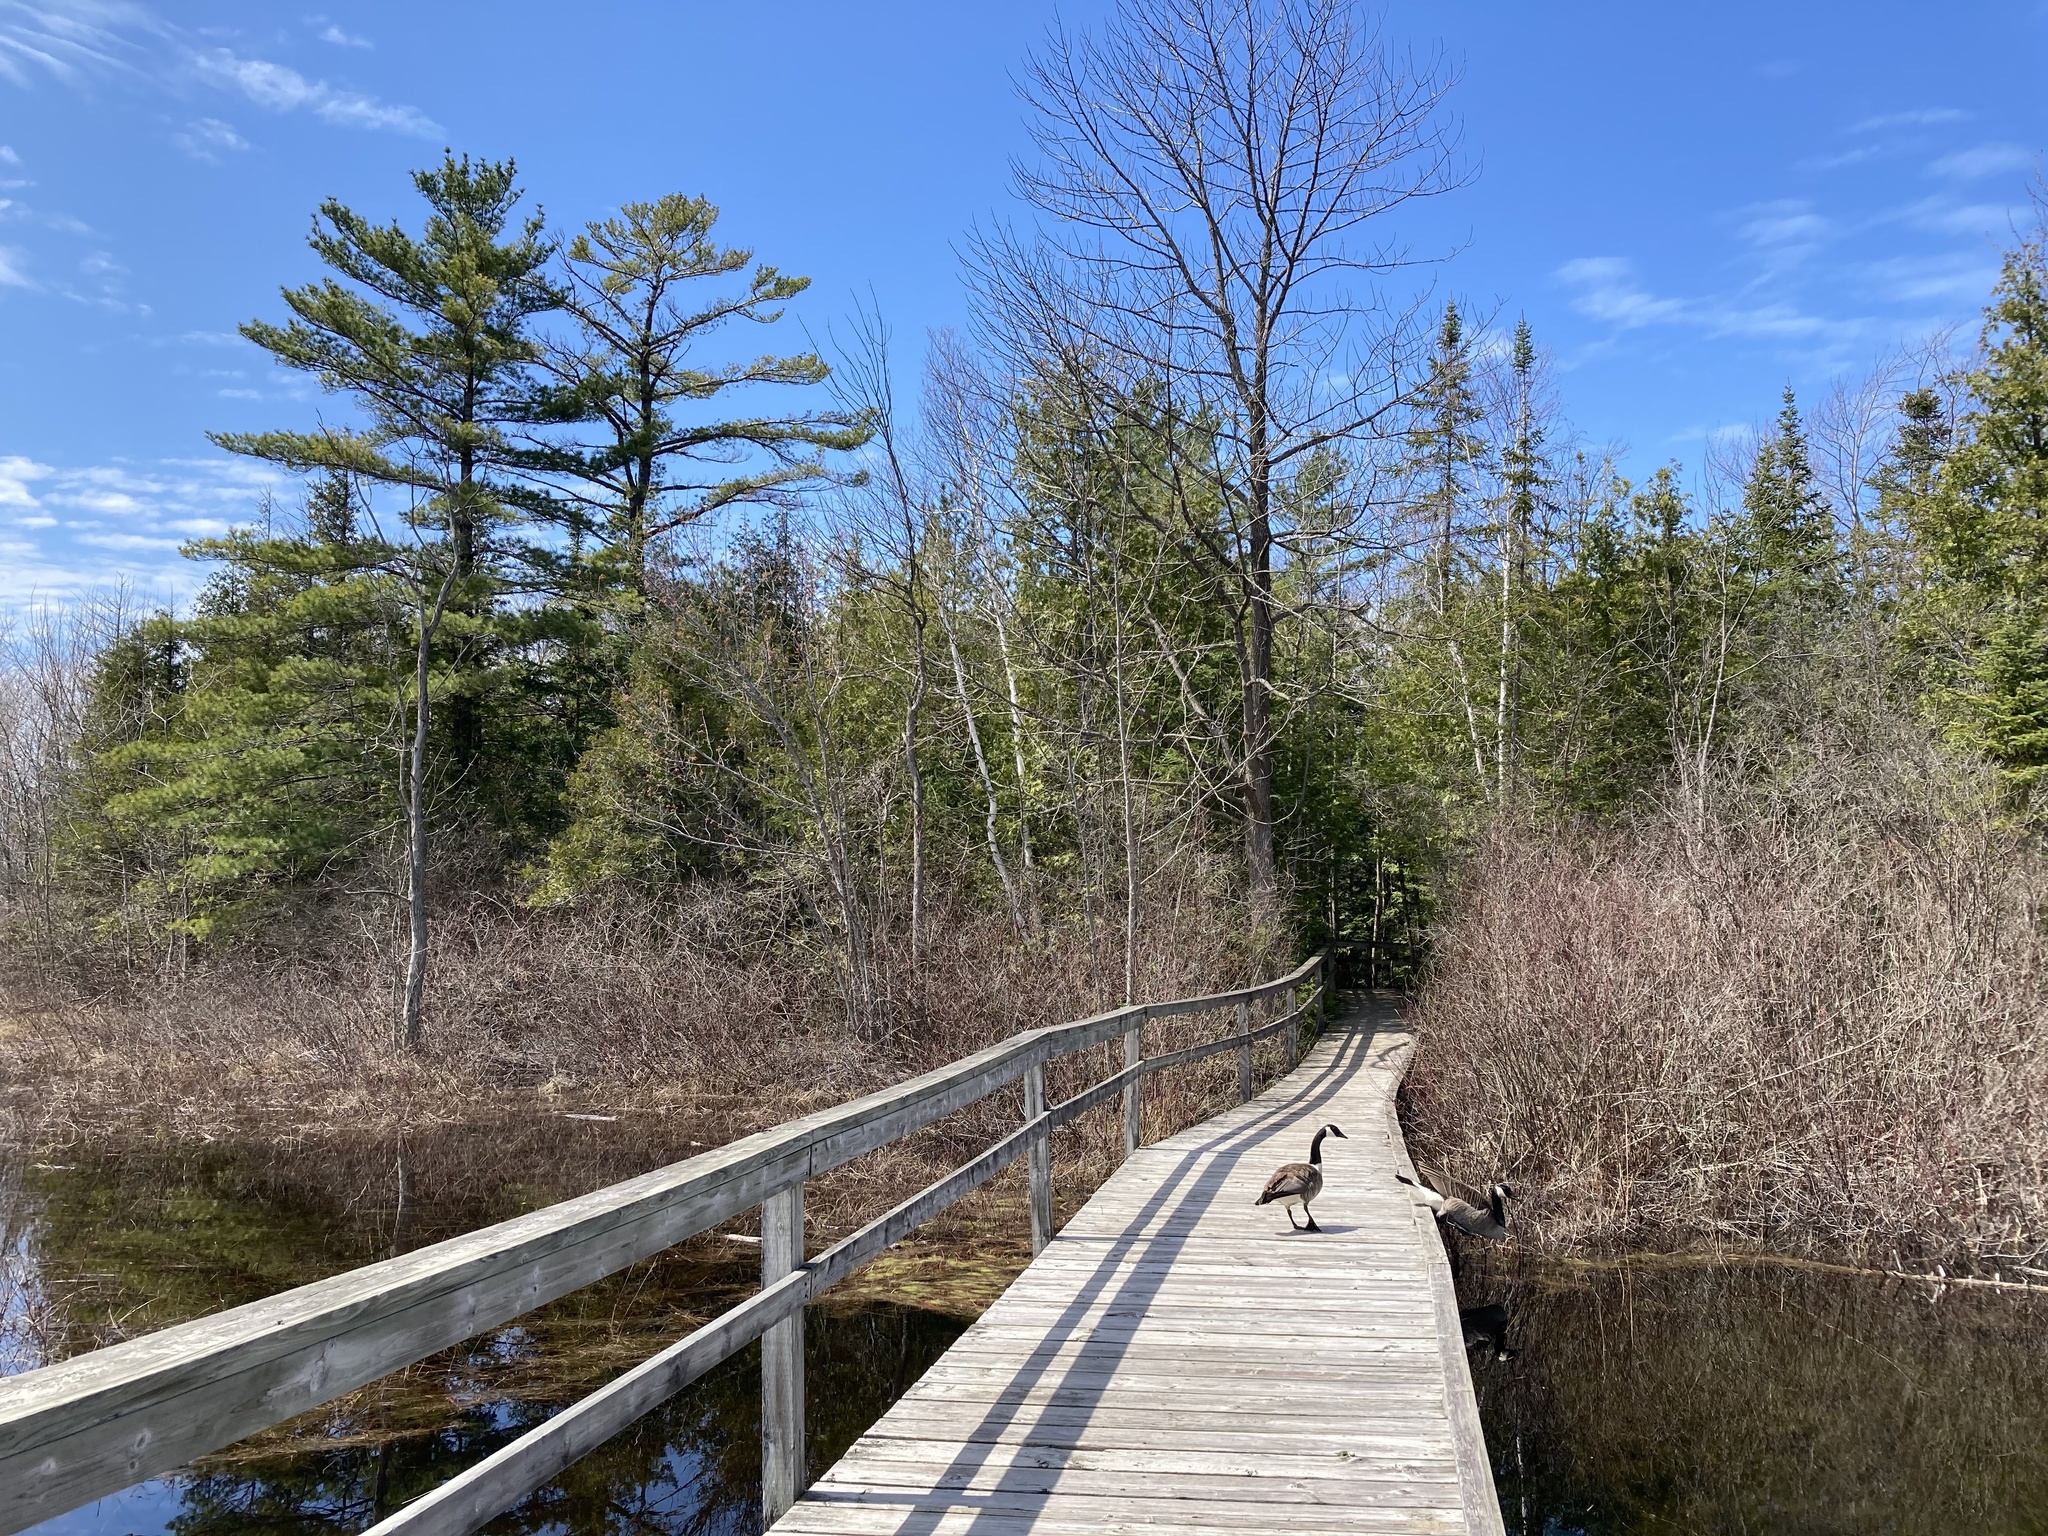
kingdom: Animalia
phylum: Chordata
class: Aves
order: Anseriformes
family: Anatidae
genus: Branta
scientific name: Branta canadensis
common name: Canada goose
